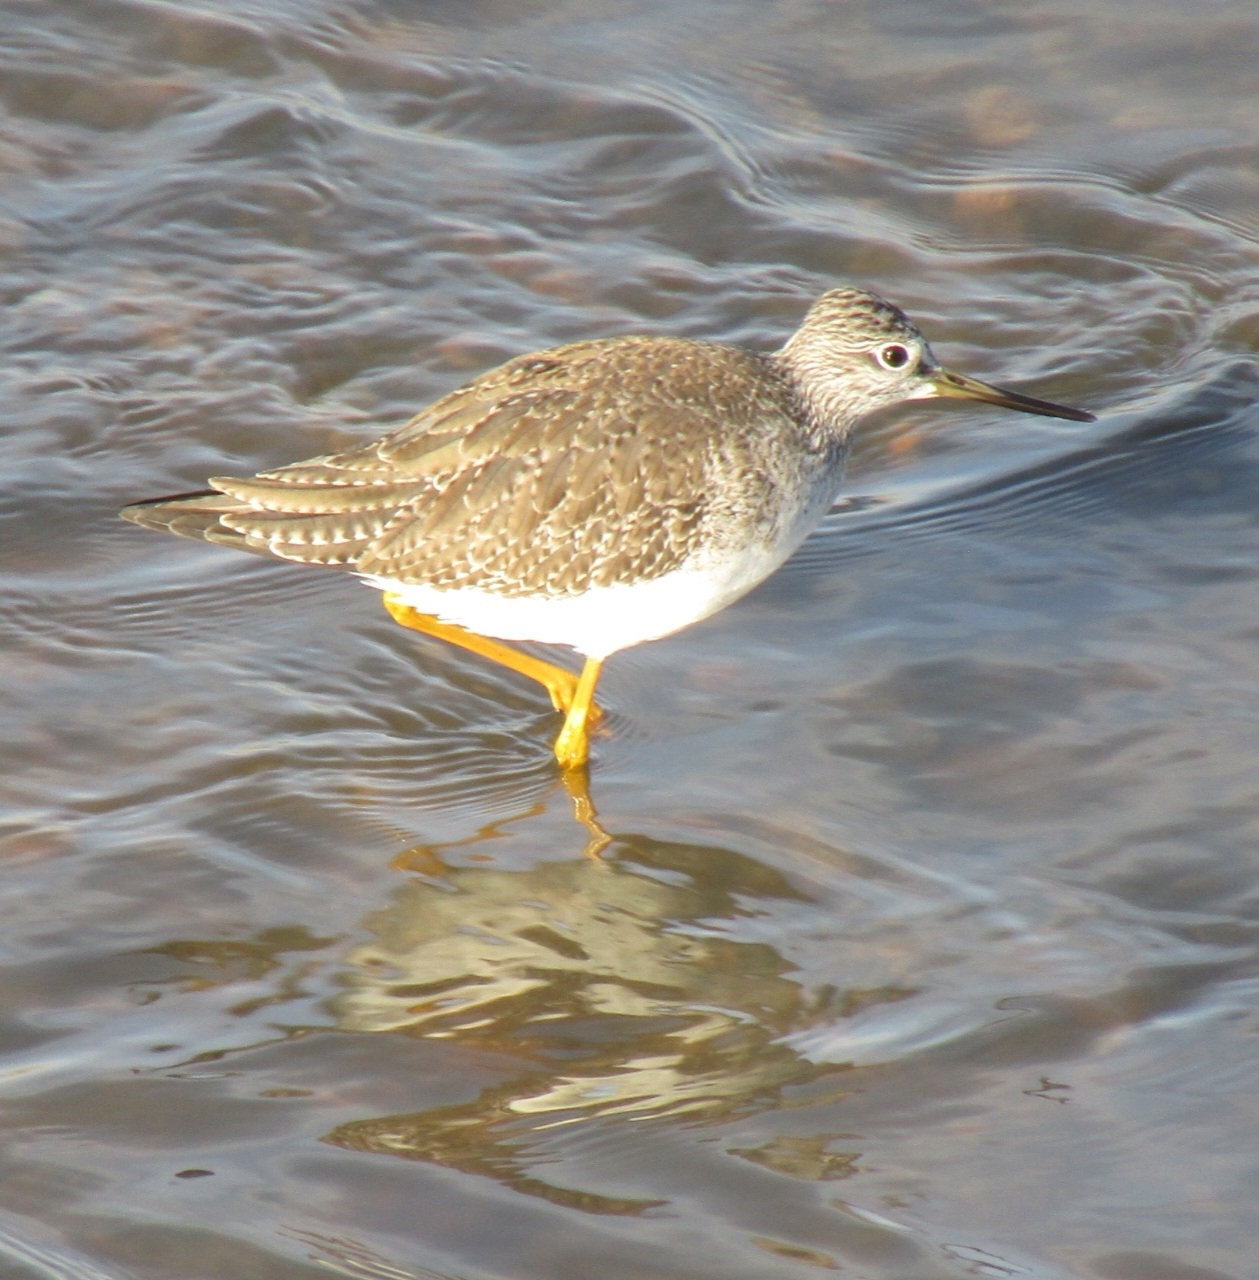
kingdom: Animalia
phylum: Chordata
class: Aves
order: Charadriiformes
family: Scolopacidae
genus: Tringa
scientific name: Tringa melanoleuca
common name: Greater yellowlegs
